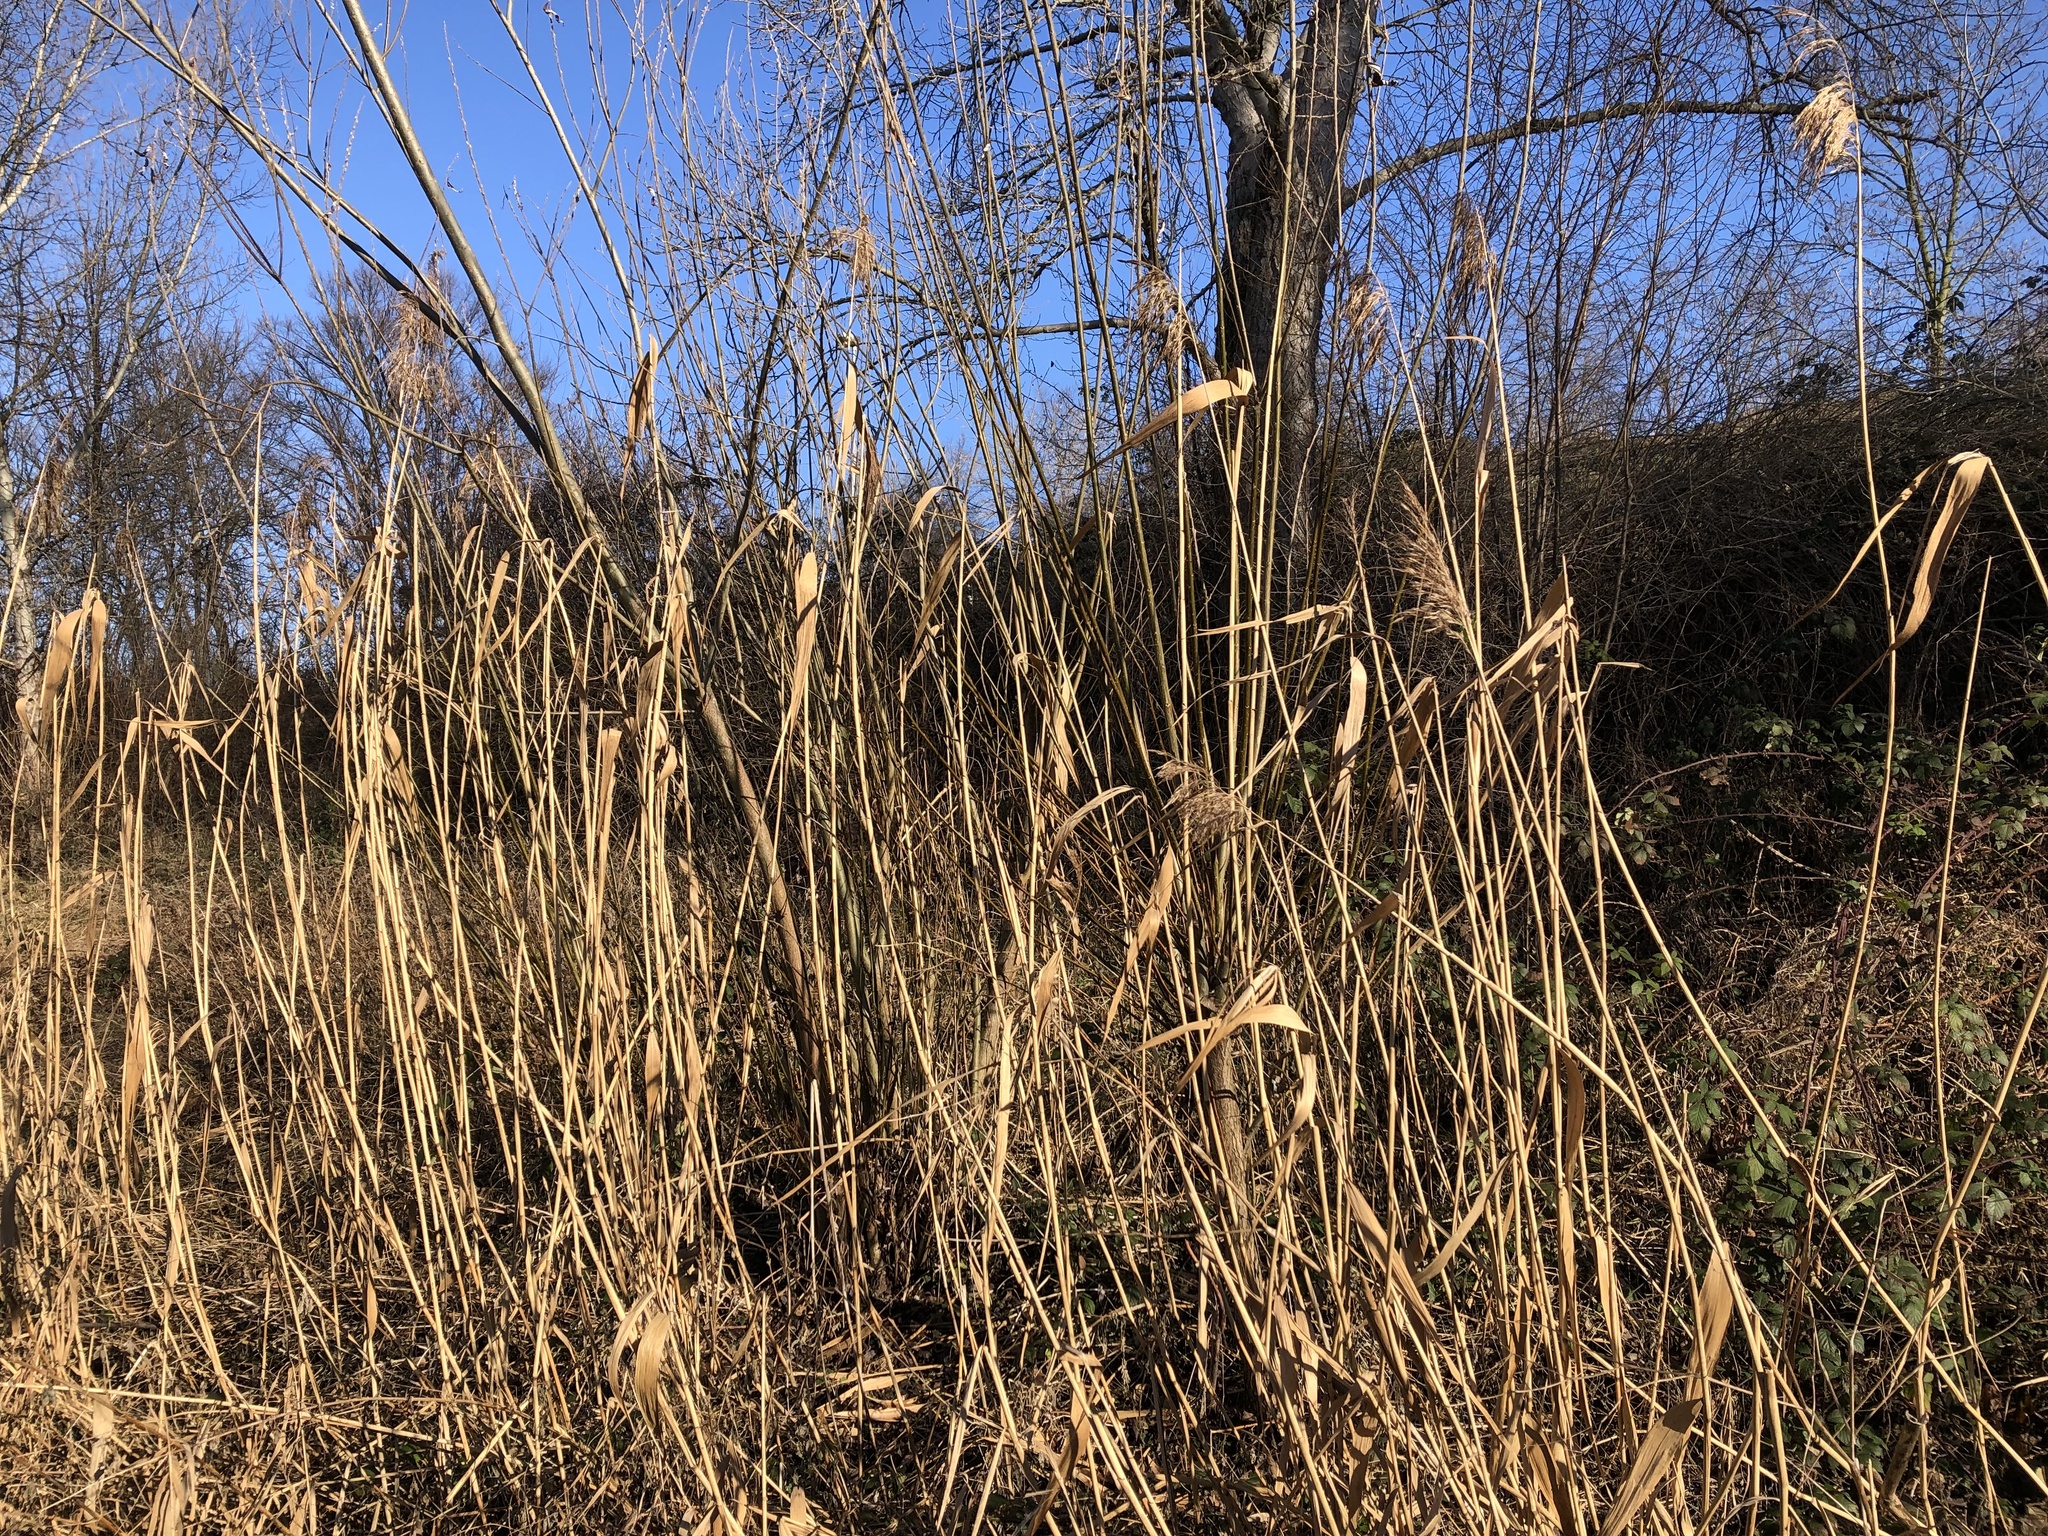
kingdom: Plantae
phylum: Tracheophyta
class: Liliopsida
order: Poales
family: Poaceae
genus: Phragmites
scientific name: Phragmites australis
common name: Common reed
